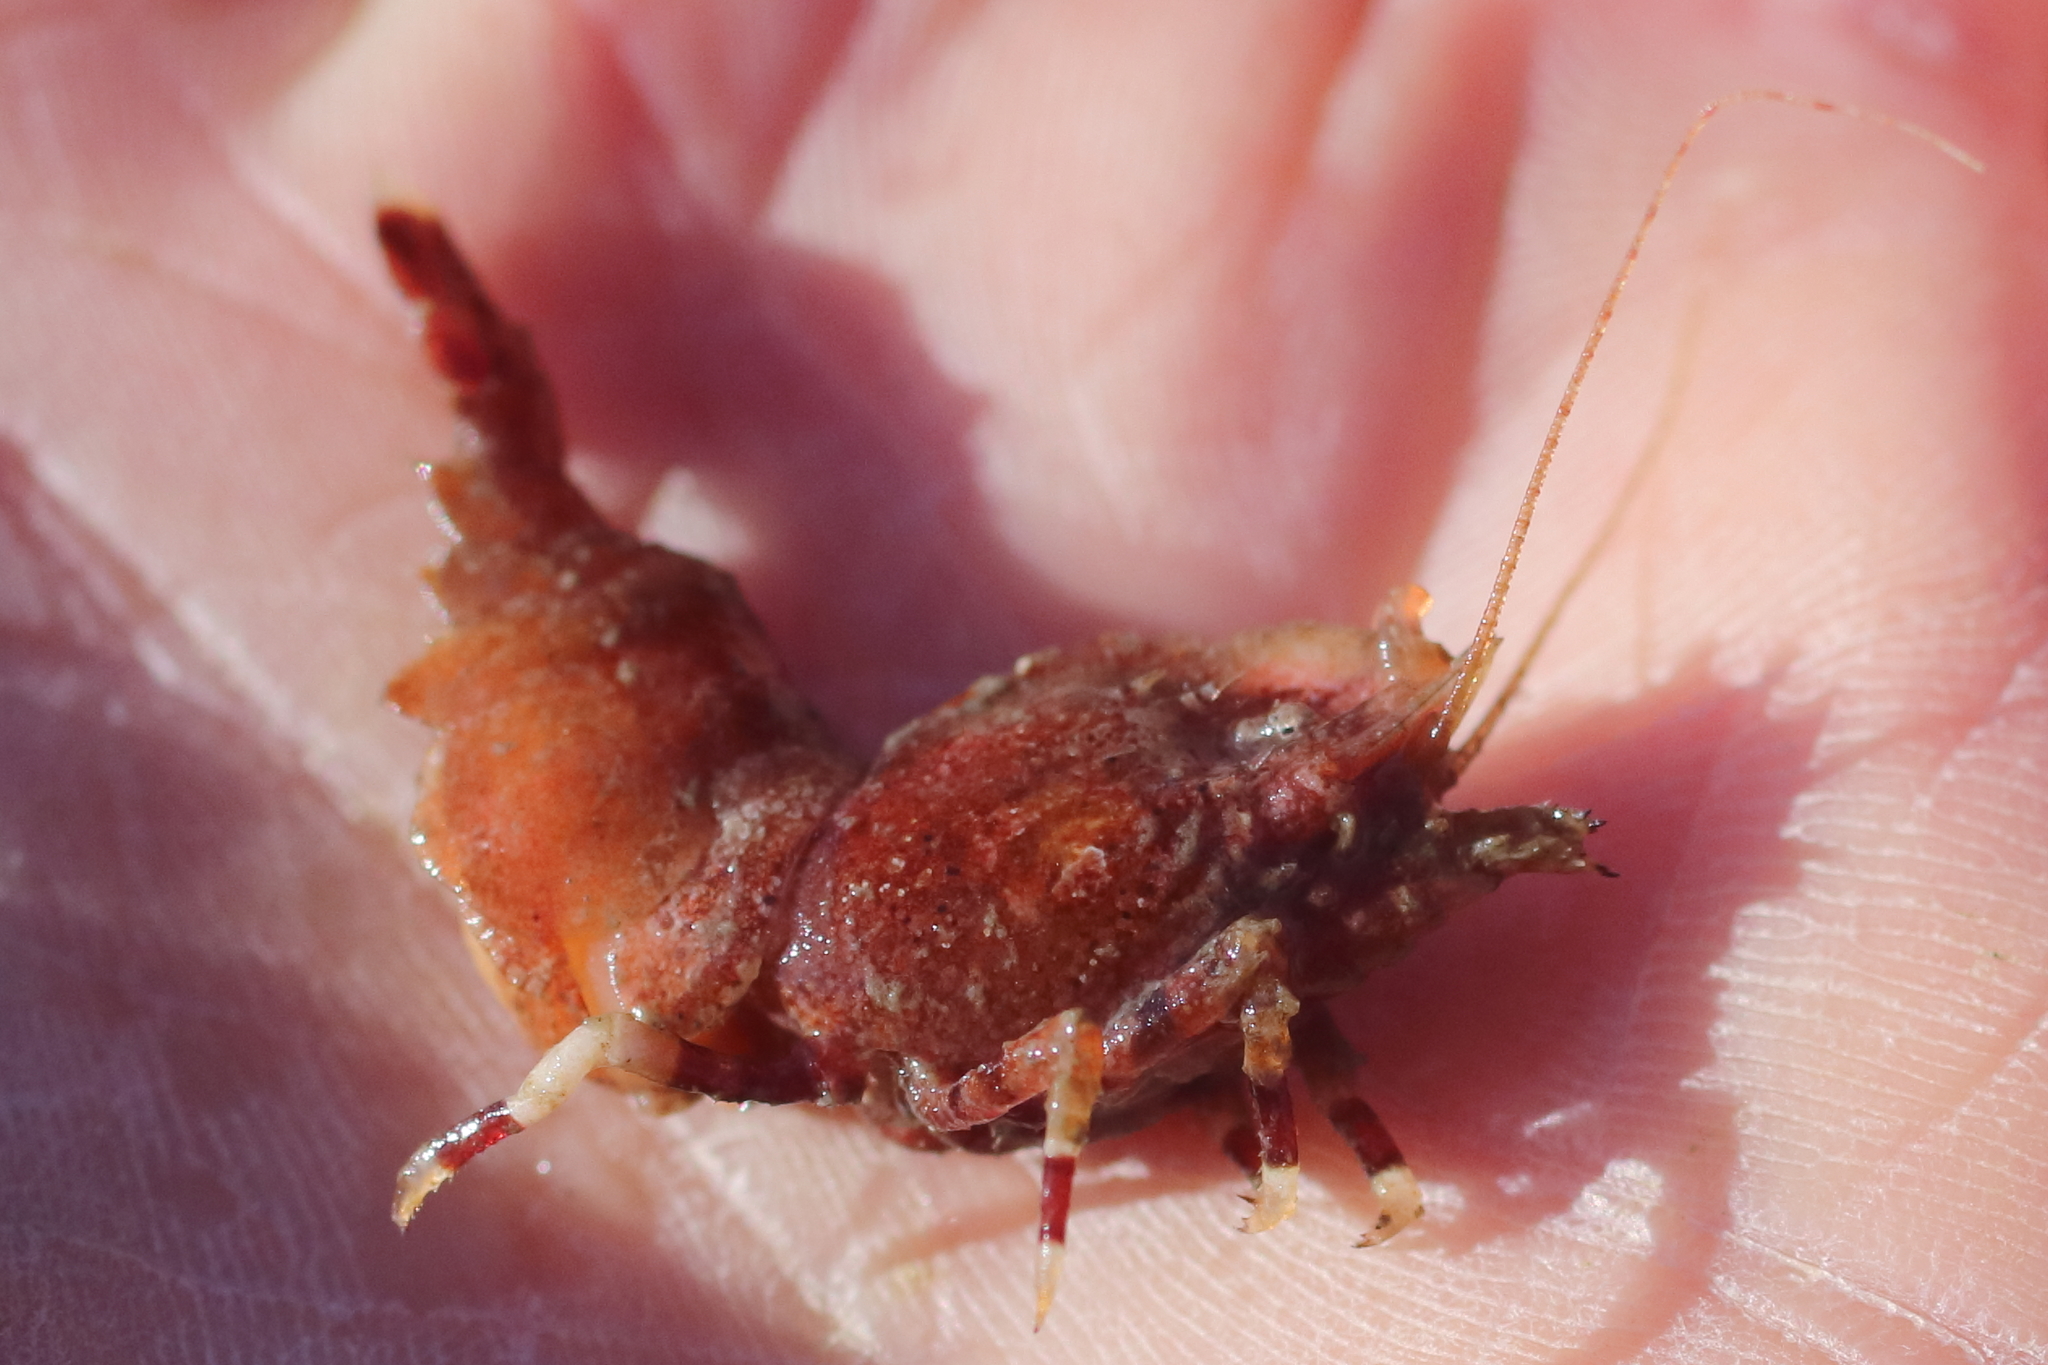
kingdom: Animalia
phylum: Arthropoda
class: Malacostraca
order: Decapoda
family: Thoridae
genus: Spirontocaris
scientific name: Spirontocaris prionota
